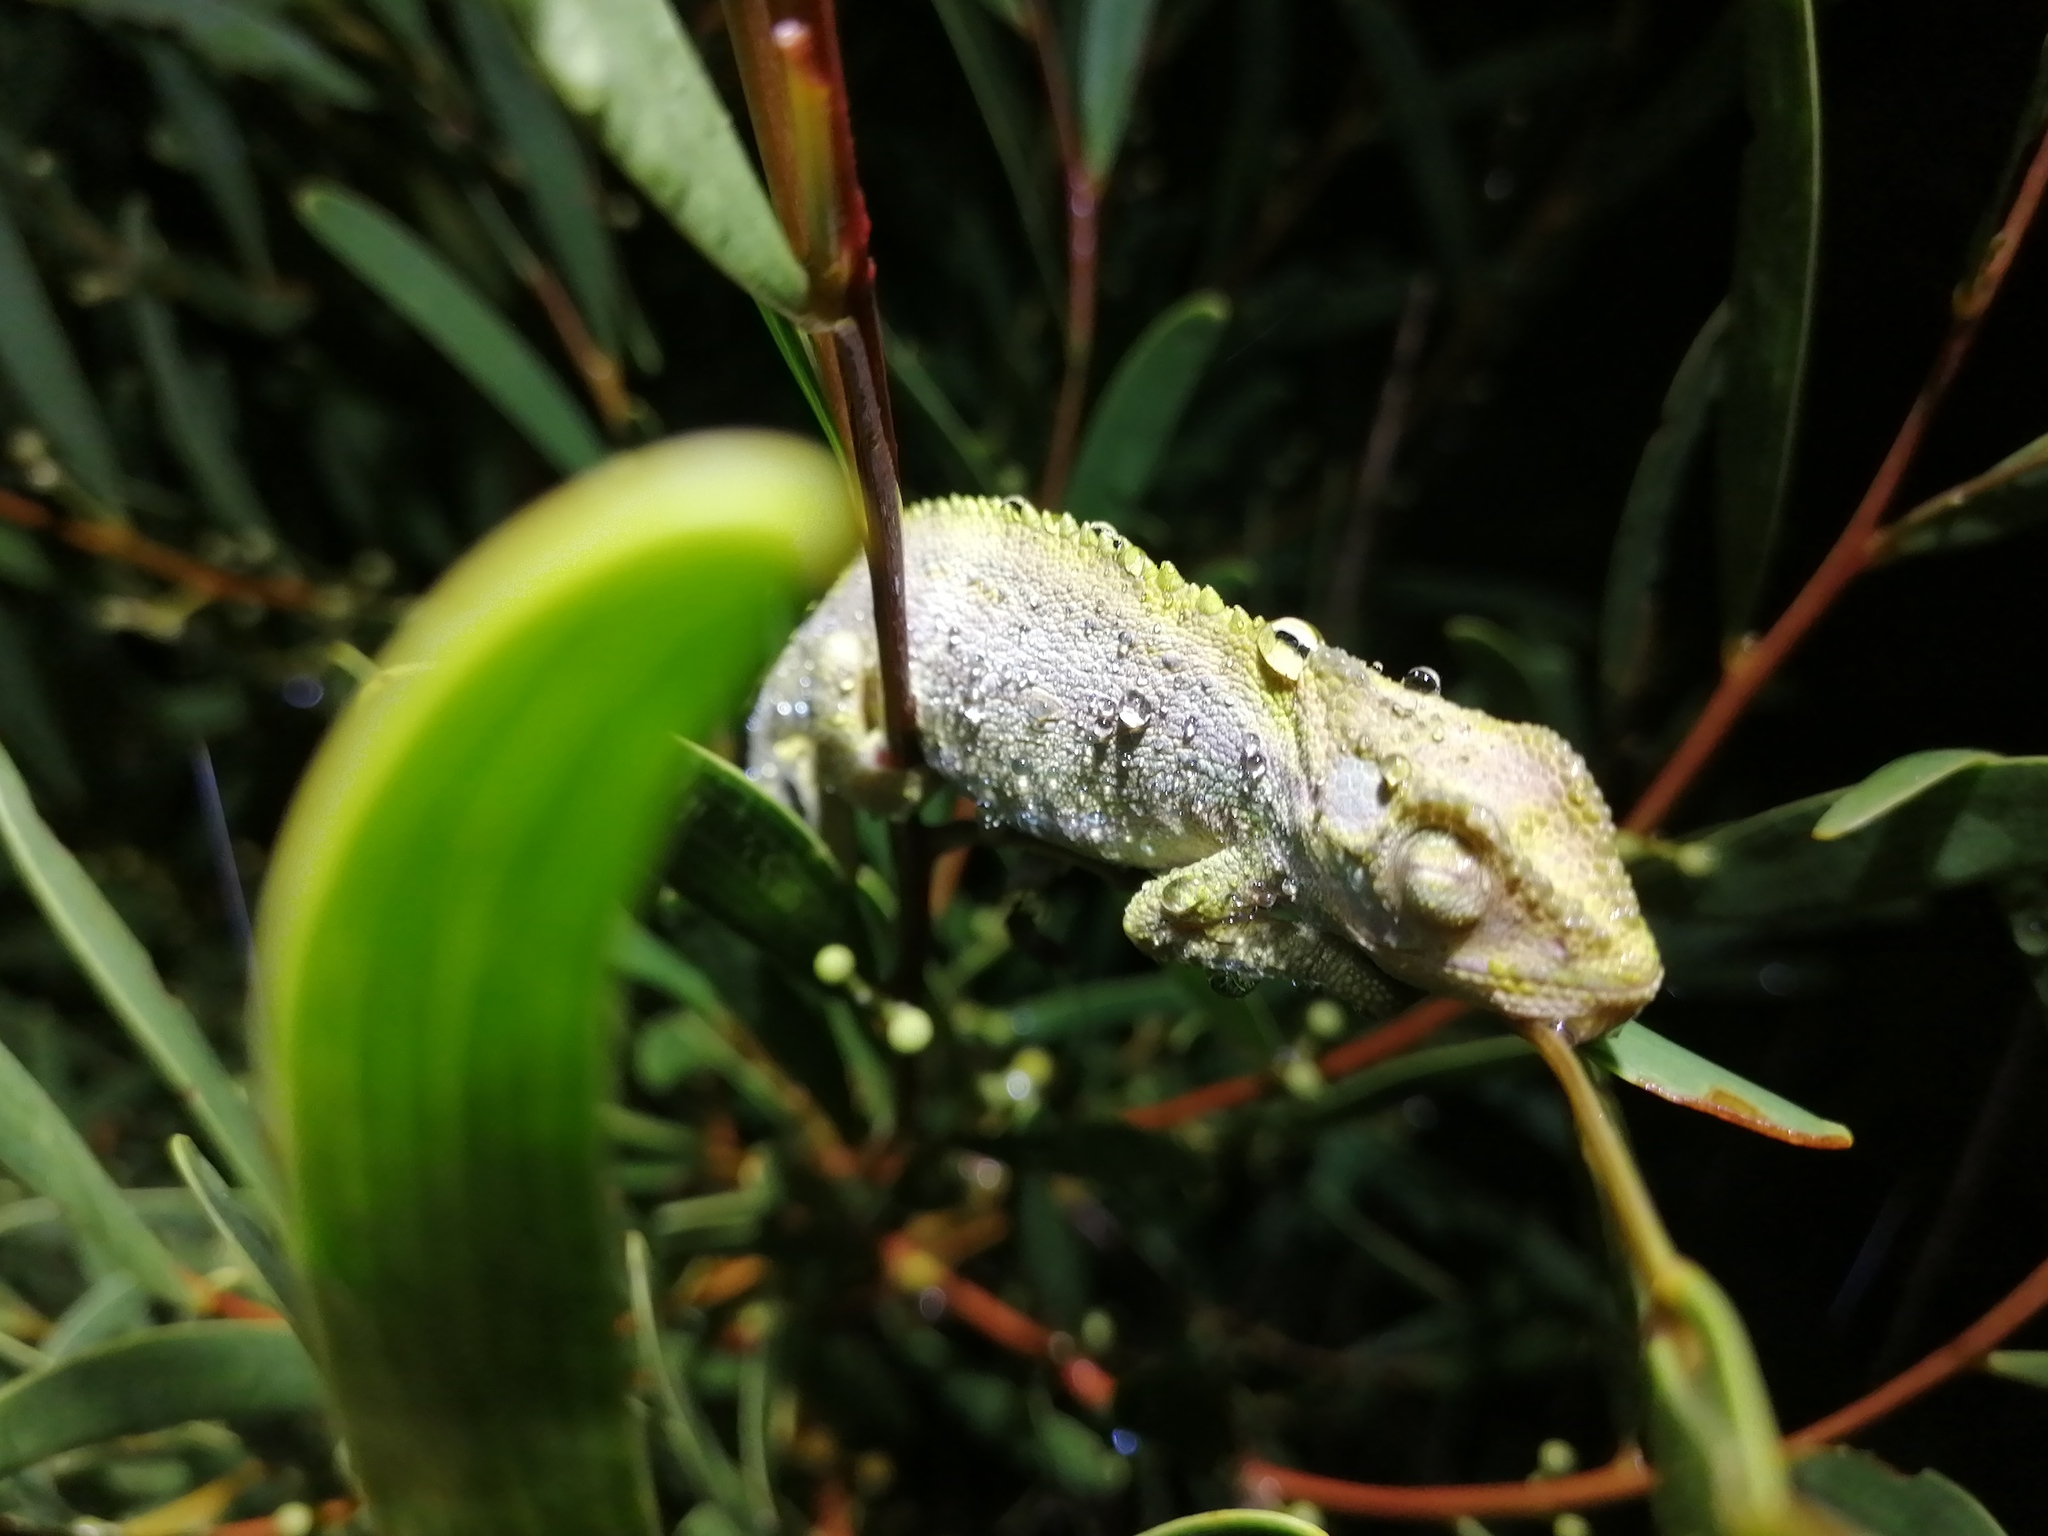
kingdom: Animalia
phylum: Chordata
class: Squamata
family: Chamaeleonidae
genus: Bradypodion
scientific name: Bradypodion pumilum
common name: Cape dwarf chameleon
